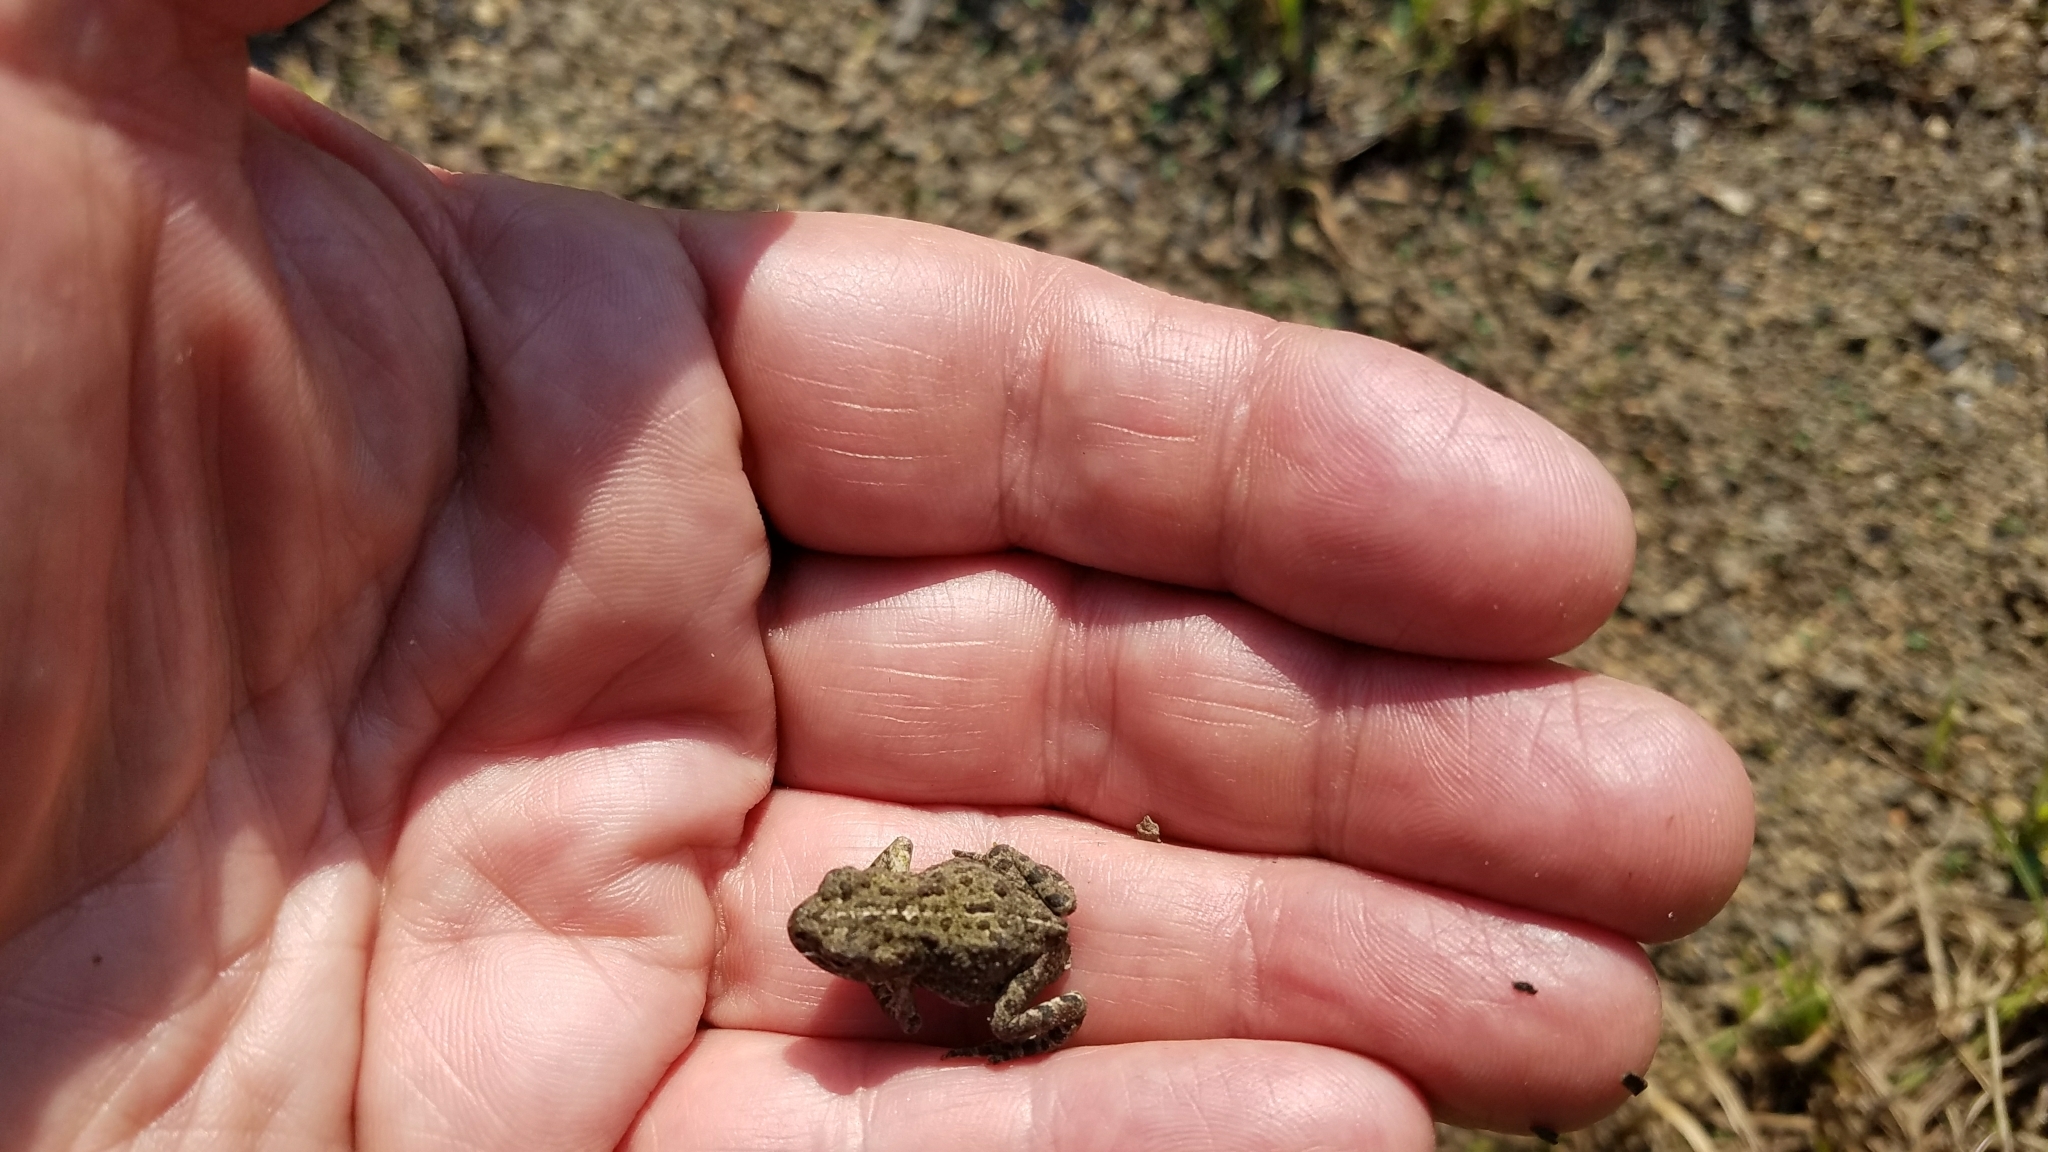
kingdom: Animalia
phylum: Chordata
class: Amphibia
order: Anura
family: Bufonidae
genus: Anaxyrus
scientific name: Anaxyrus boreas
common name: Western toad
